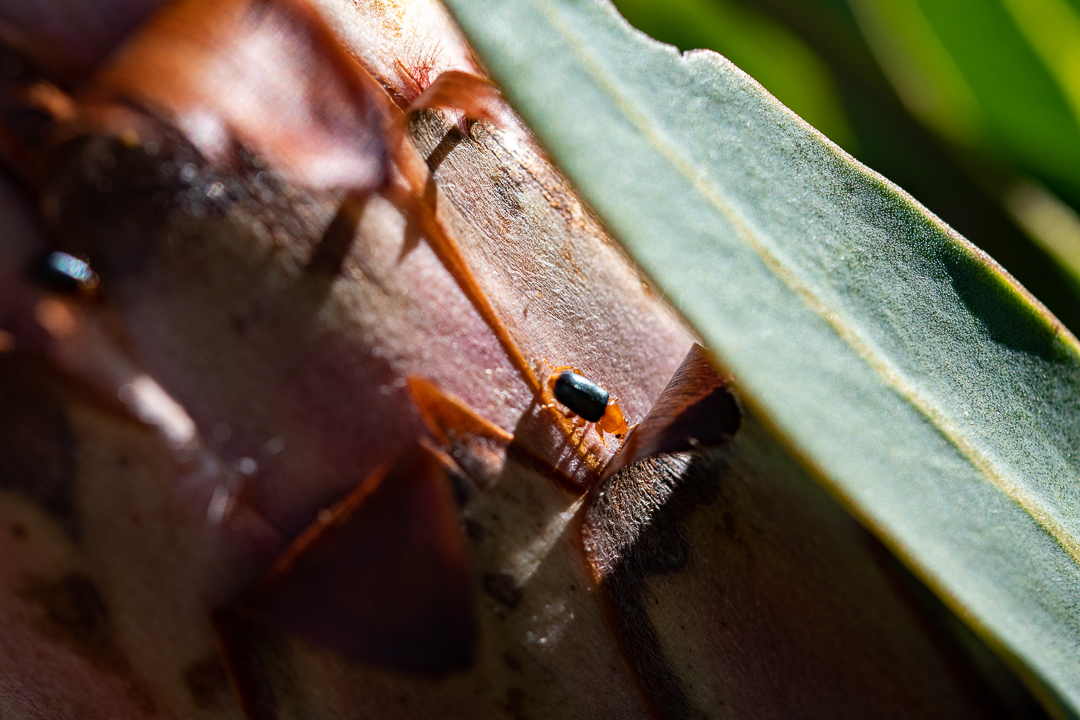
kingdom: Animalia
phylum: Arthropoda
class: Insecta
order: Coleoptera
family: Chrysomelidae
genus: Chirodica
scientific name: Chirodica
